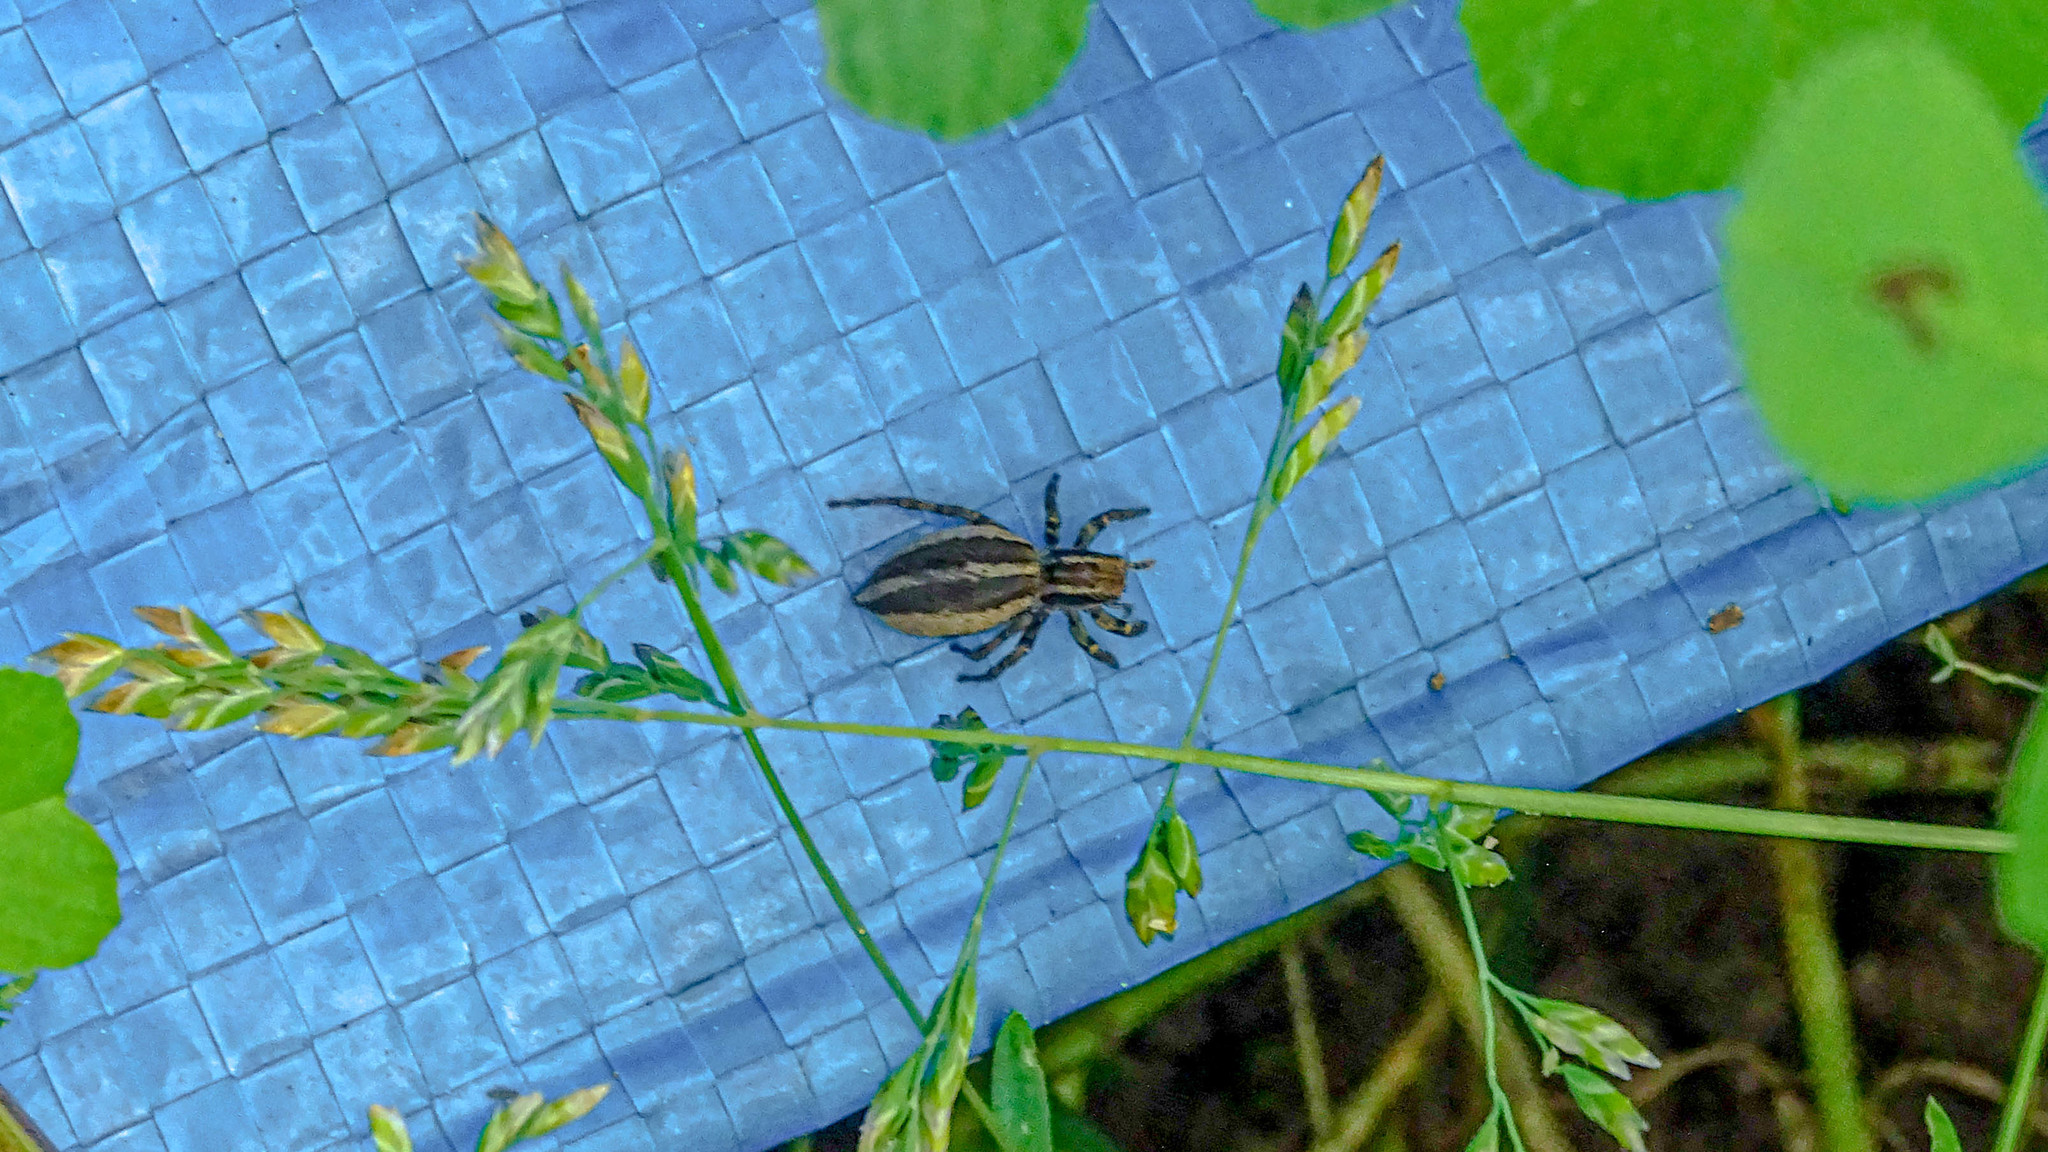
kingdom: Animalia
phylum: Arthropoda
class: Arachnida
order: Araneae
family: Salticidae
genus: Phlegra
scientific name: Phlegra fasciata
